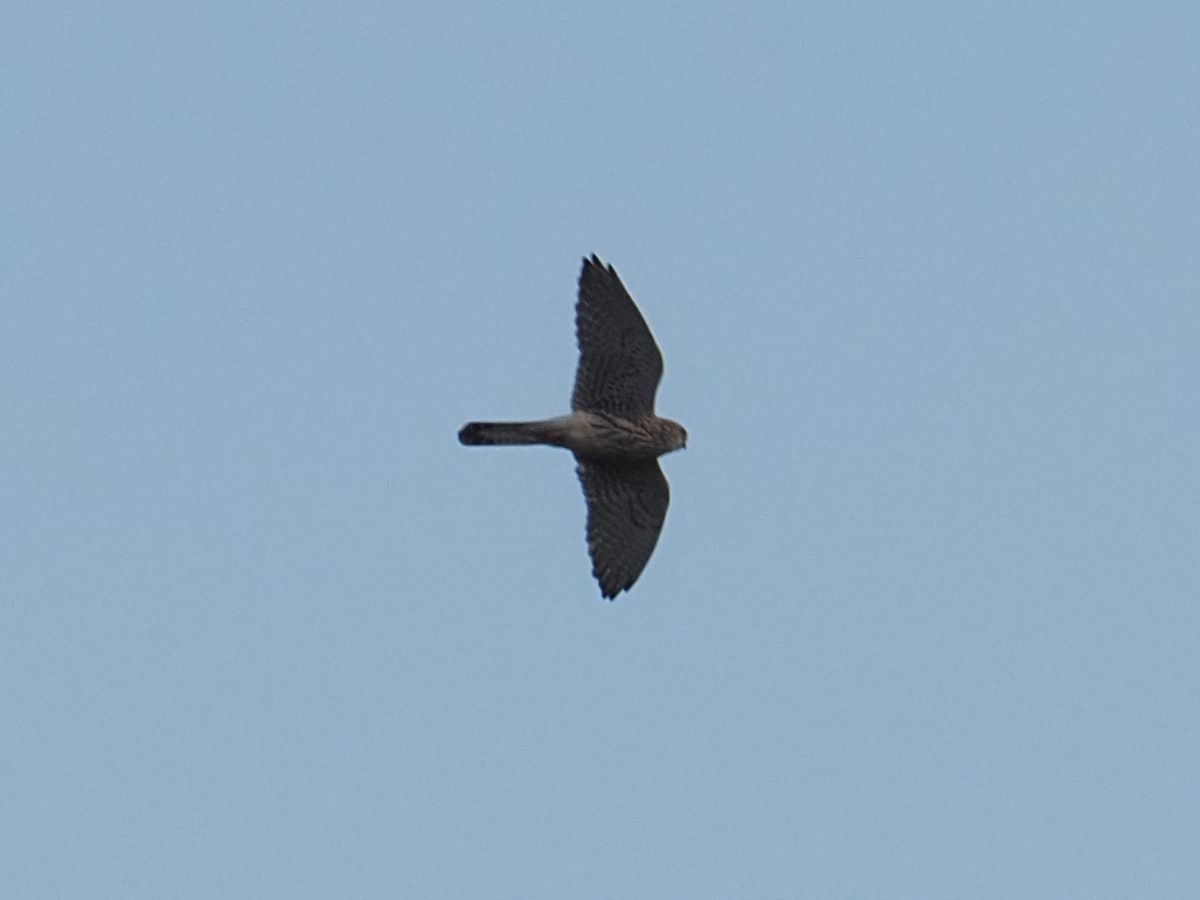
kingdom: Animalia
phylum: Chordata
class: Aves
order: Falconiformes
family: Falconidae
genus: Falco
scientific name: Falco tinnunculus
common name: Common kestrel
